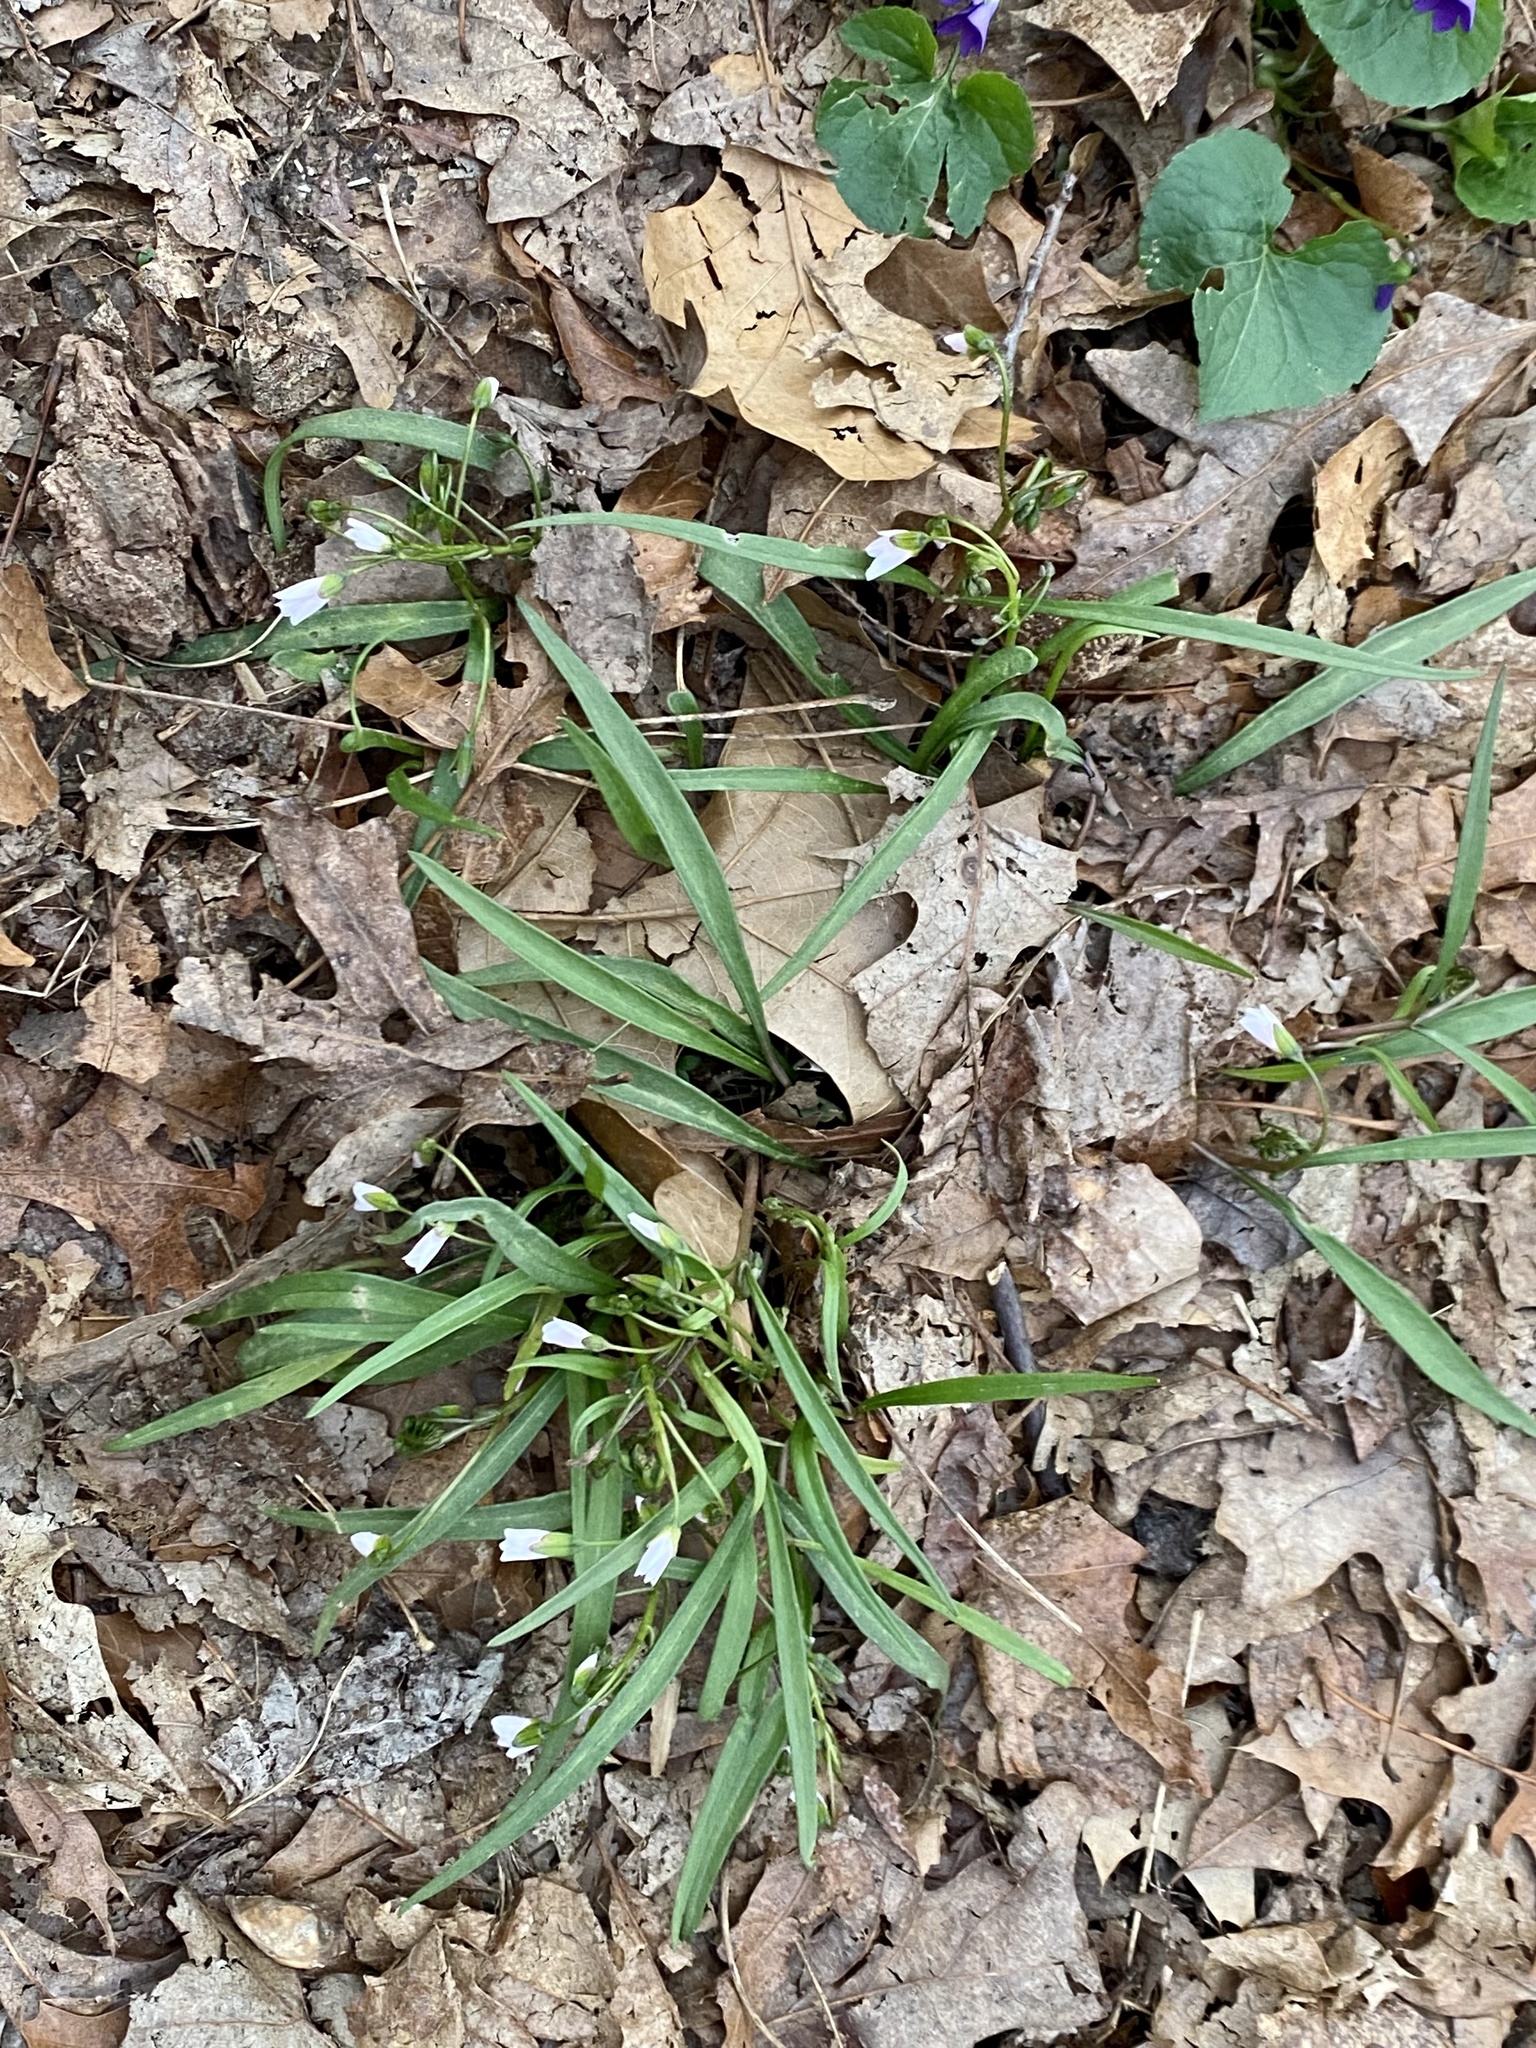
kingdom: Plantae
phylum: Tracheophyta
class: Magnoliopsida
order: Caryophyllales
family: Montiaceae
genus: Claytonia
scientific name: Claytonia virginica
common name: Virginia springbeauty
